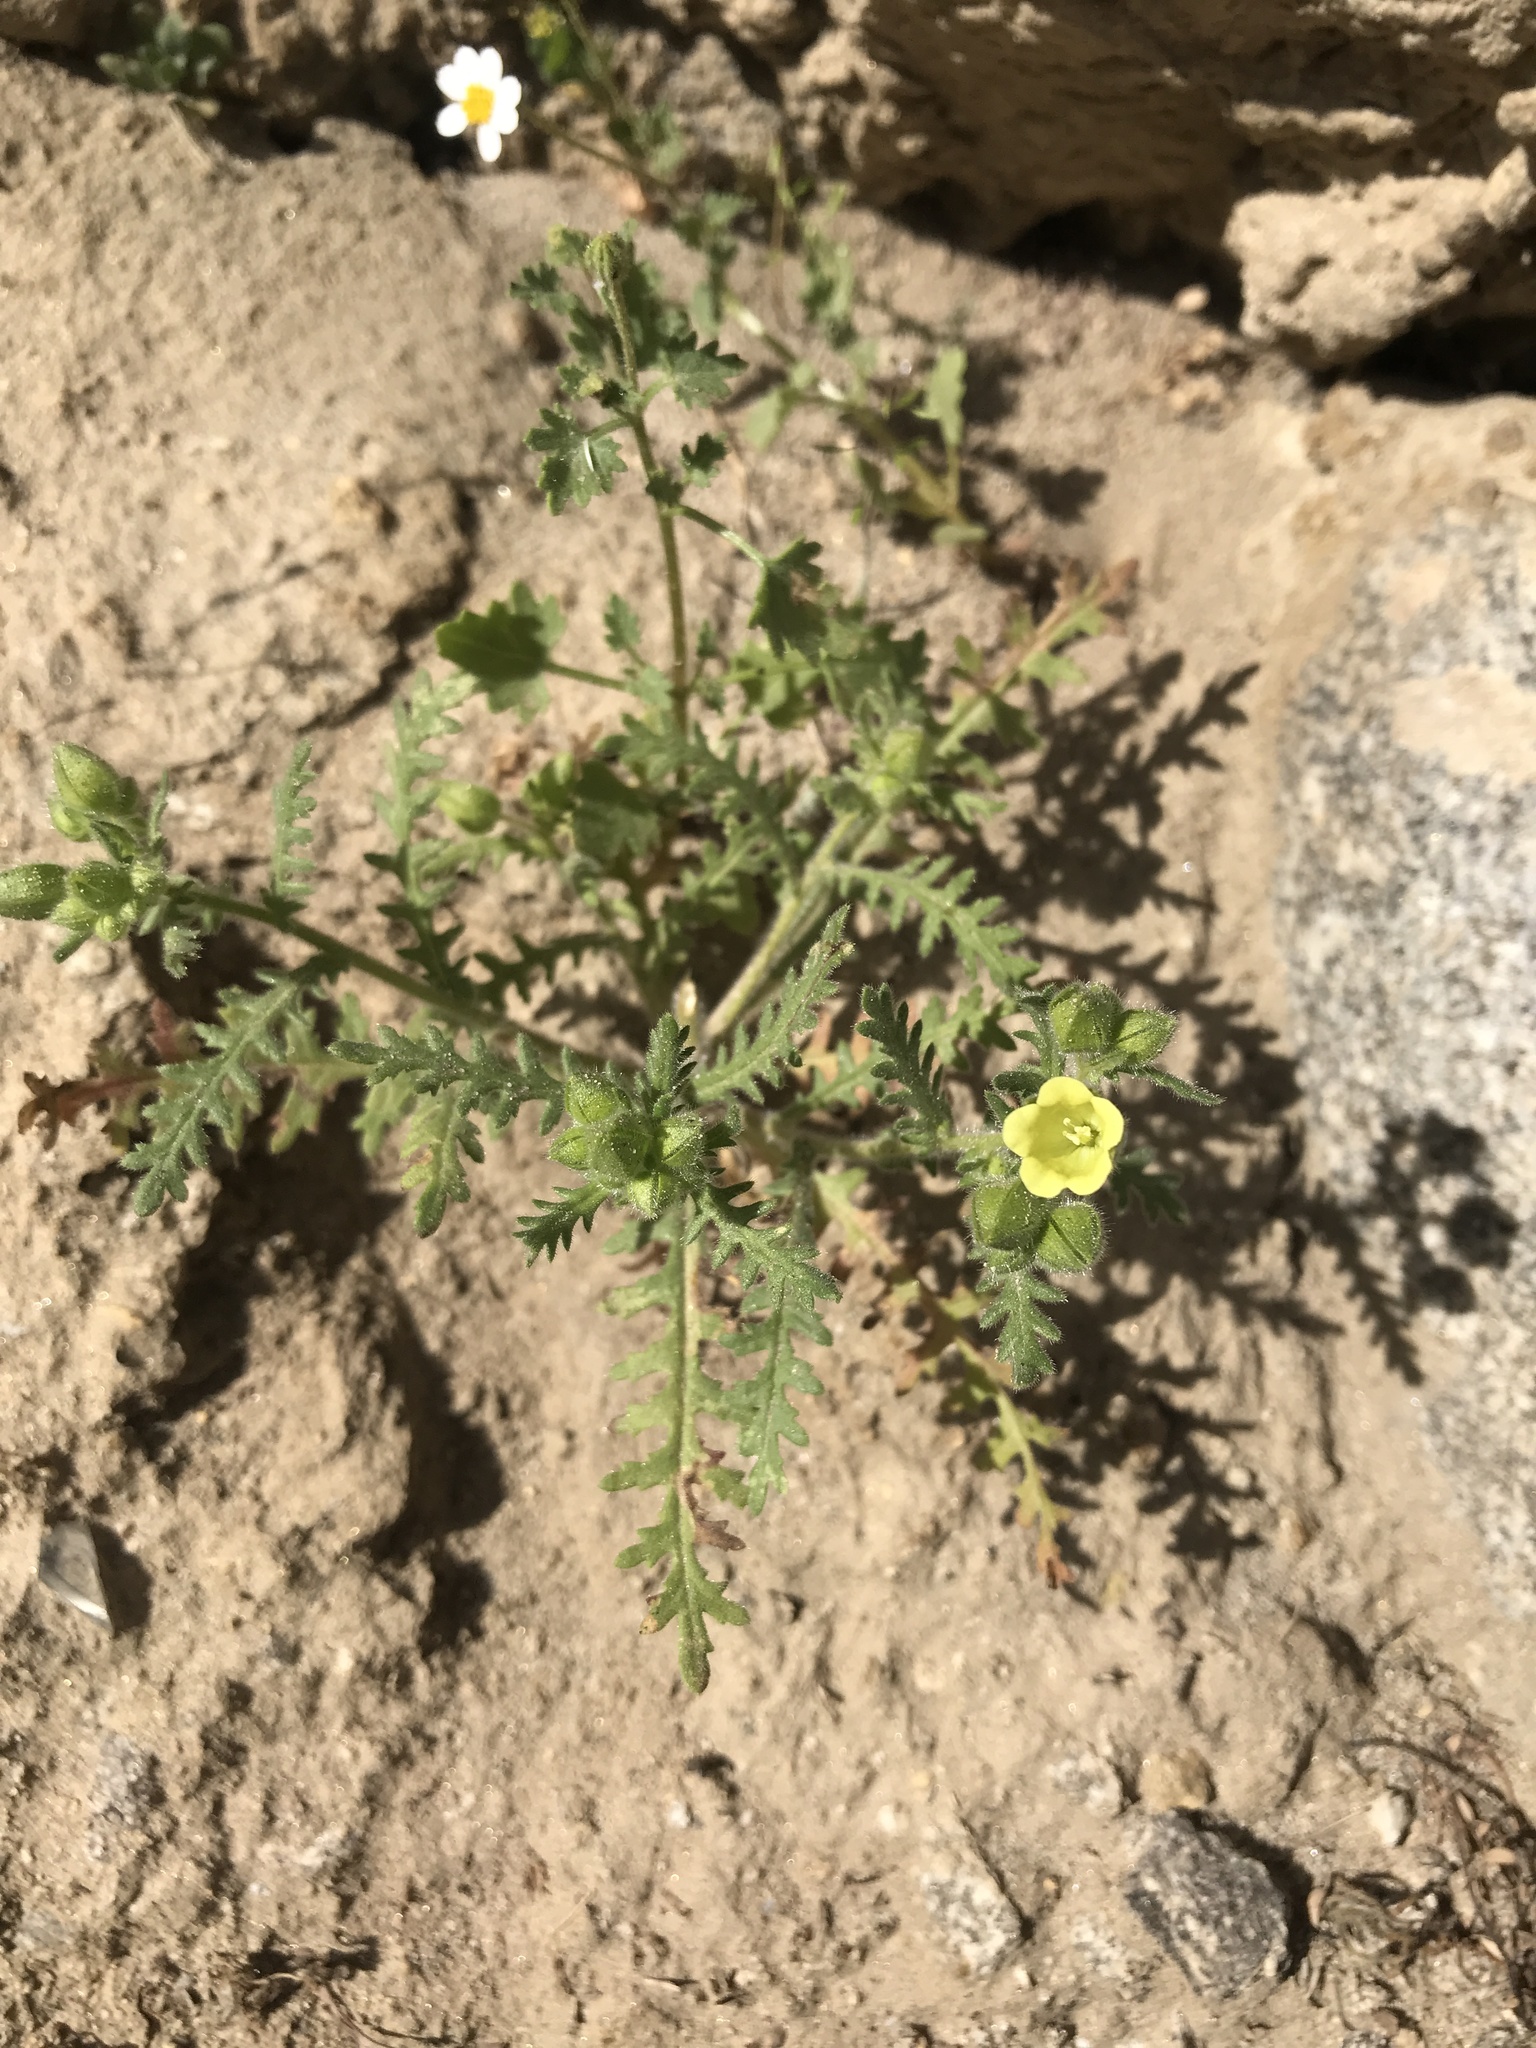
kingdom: Plantae
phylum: Tracheophyta
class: Magnoliopsida
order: Boraginales
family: Hydrophyllaceae
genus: Emmenanthe
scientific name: Emmenanthe penduliflora
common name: Whispering-bells
